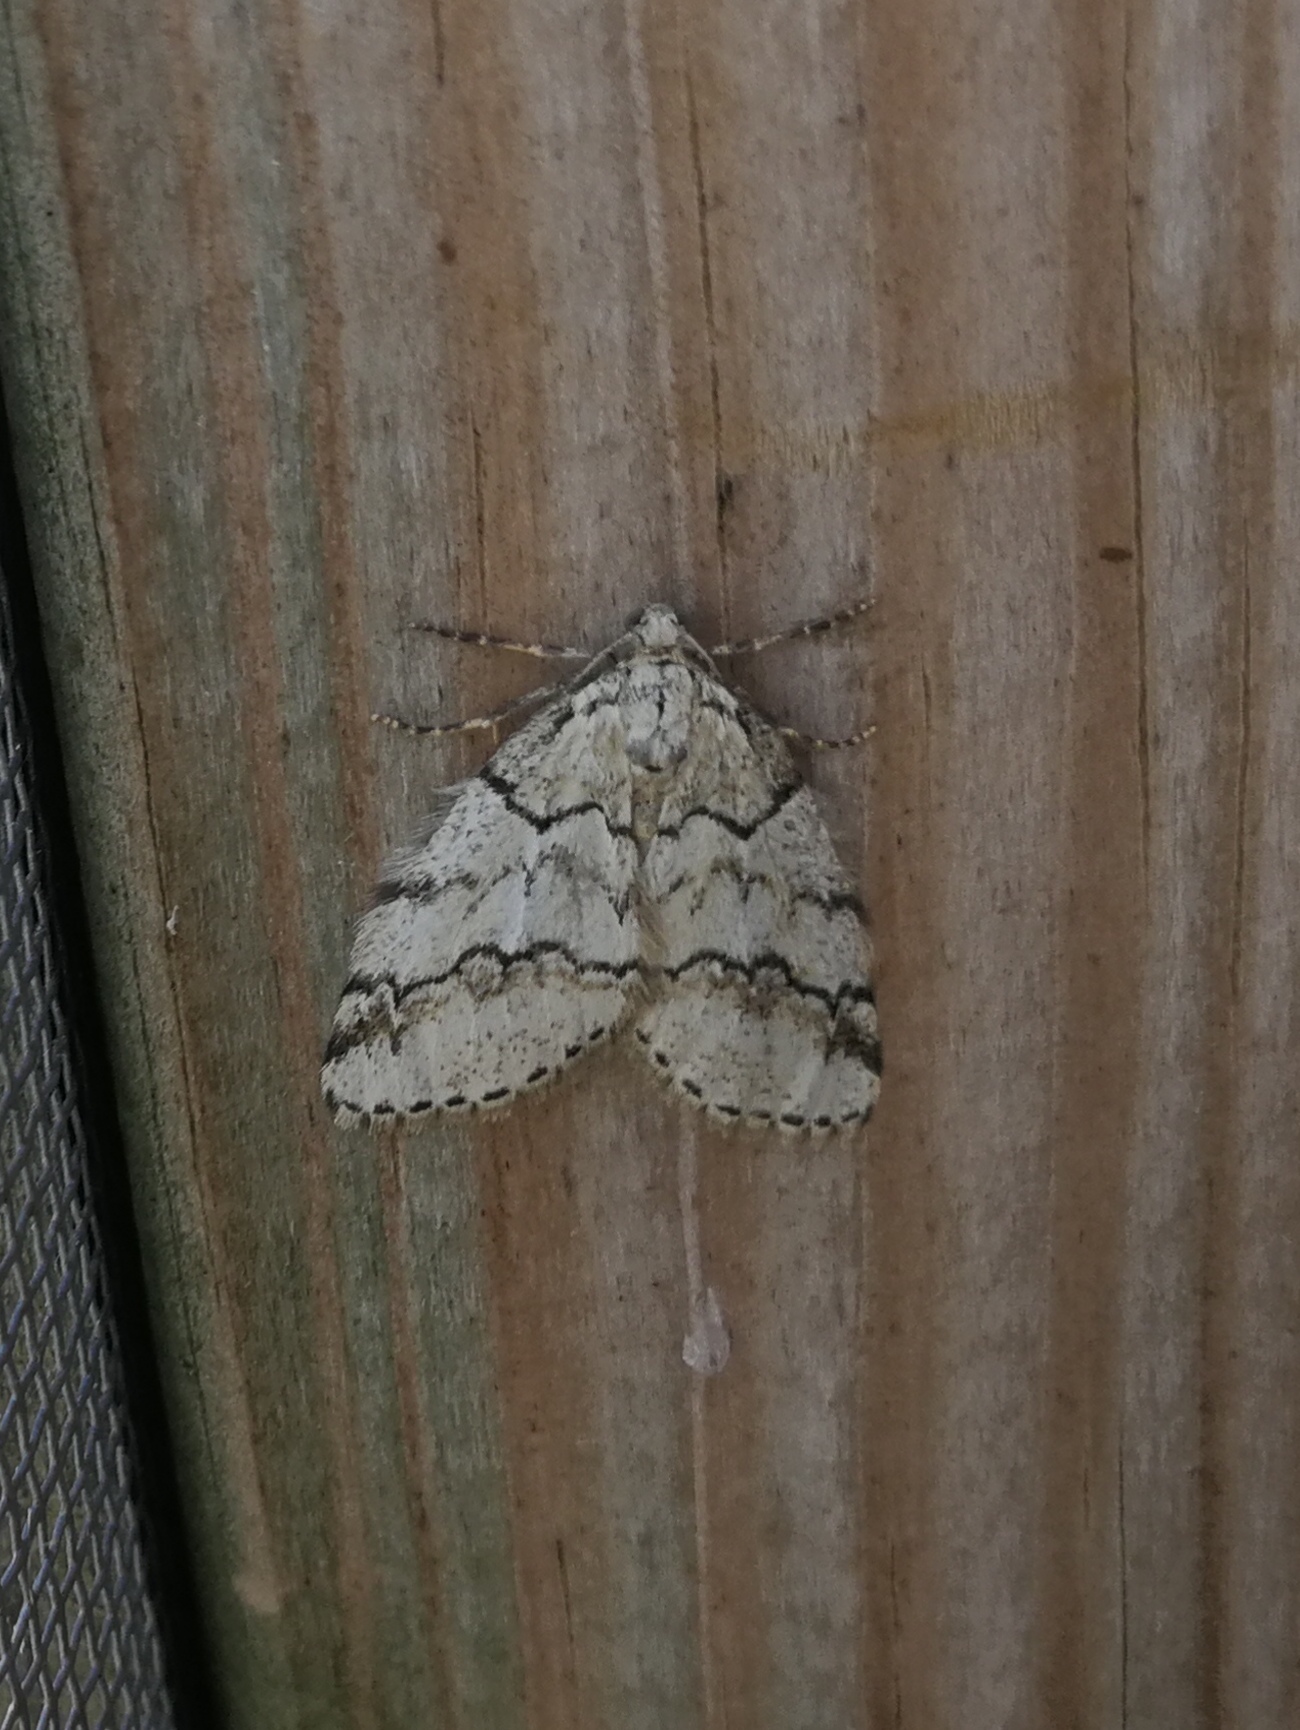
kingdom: Animalia
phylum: Arthropoda
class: Insecta
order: Lepidoptera
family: Geometridae
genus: Tephronia
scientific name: Tephronia lhommaria
